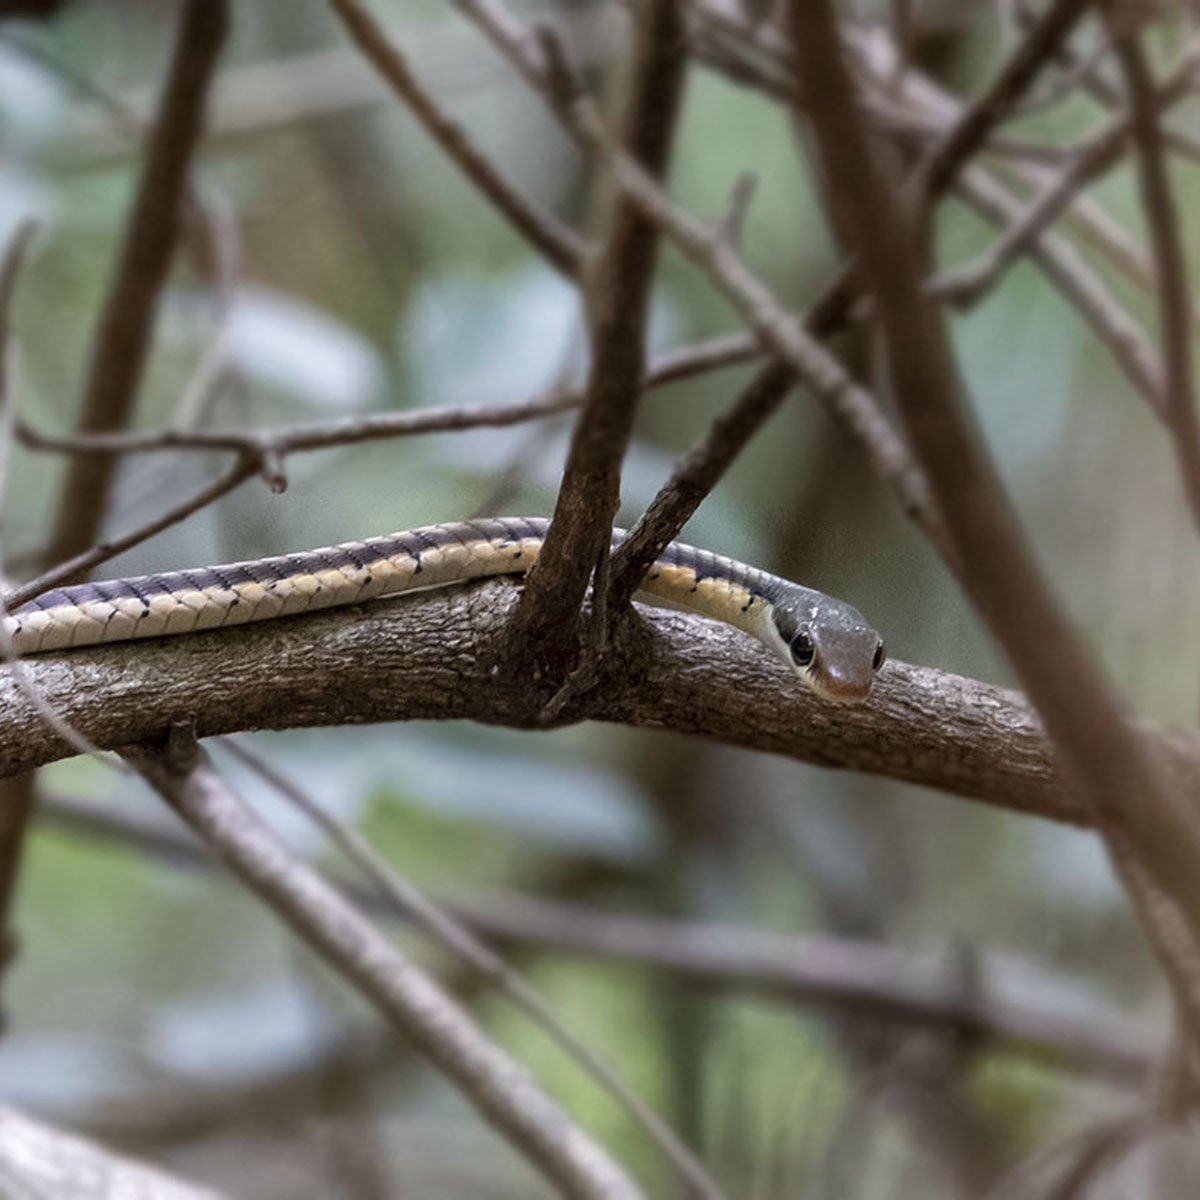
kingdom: Animalia
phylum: Chordata
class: Squamata
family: Colubridae
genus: Dendrelaphis
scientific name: Dendrelaphis tristis
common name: Daudin's bronzeback
